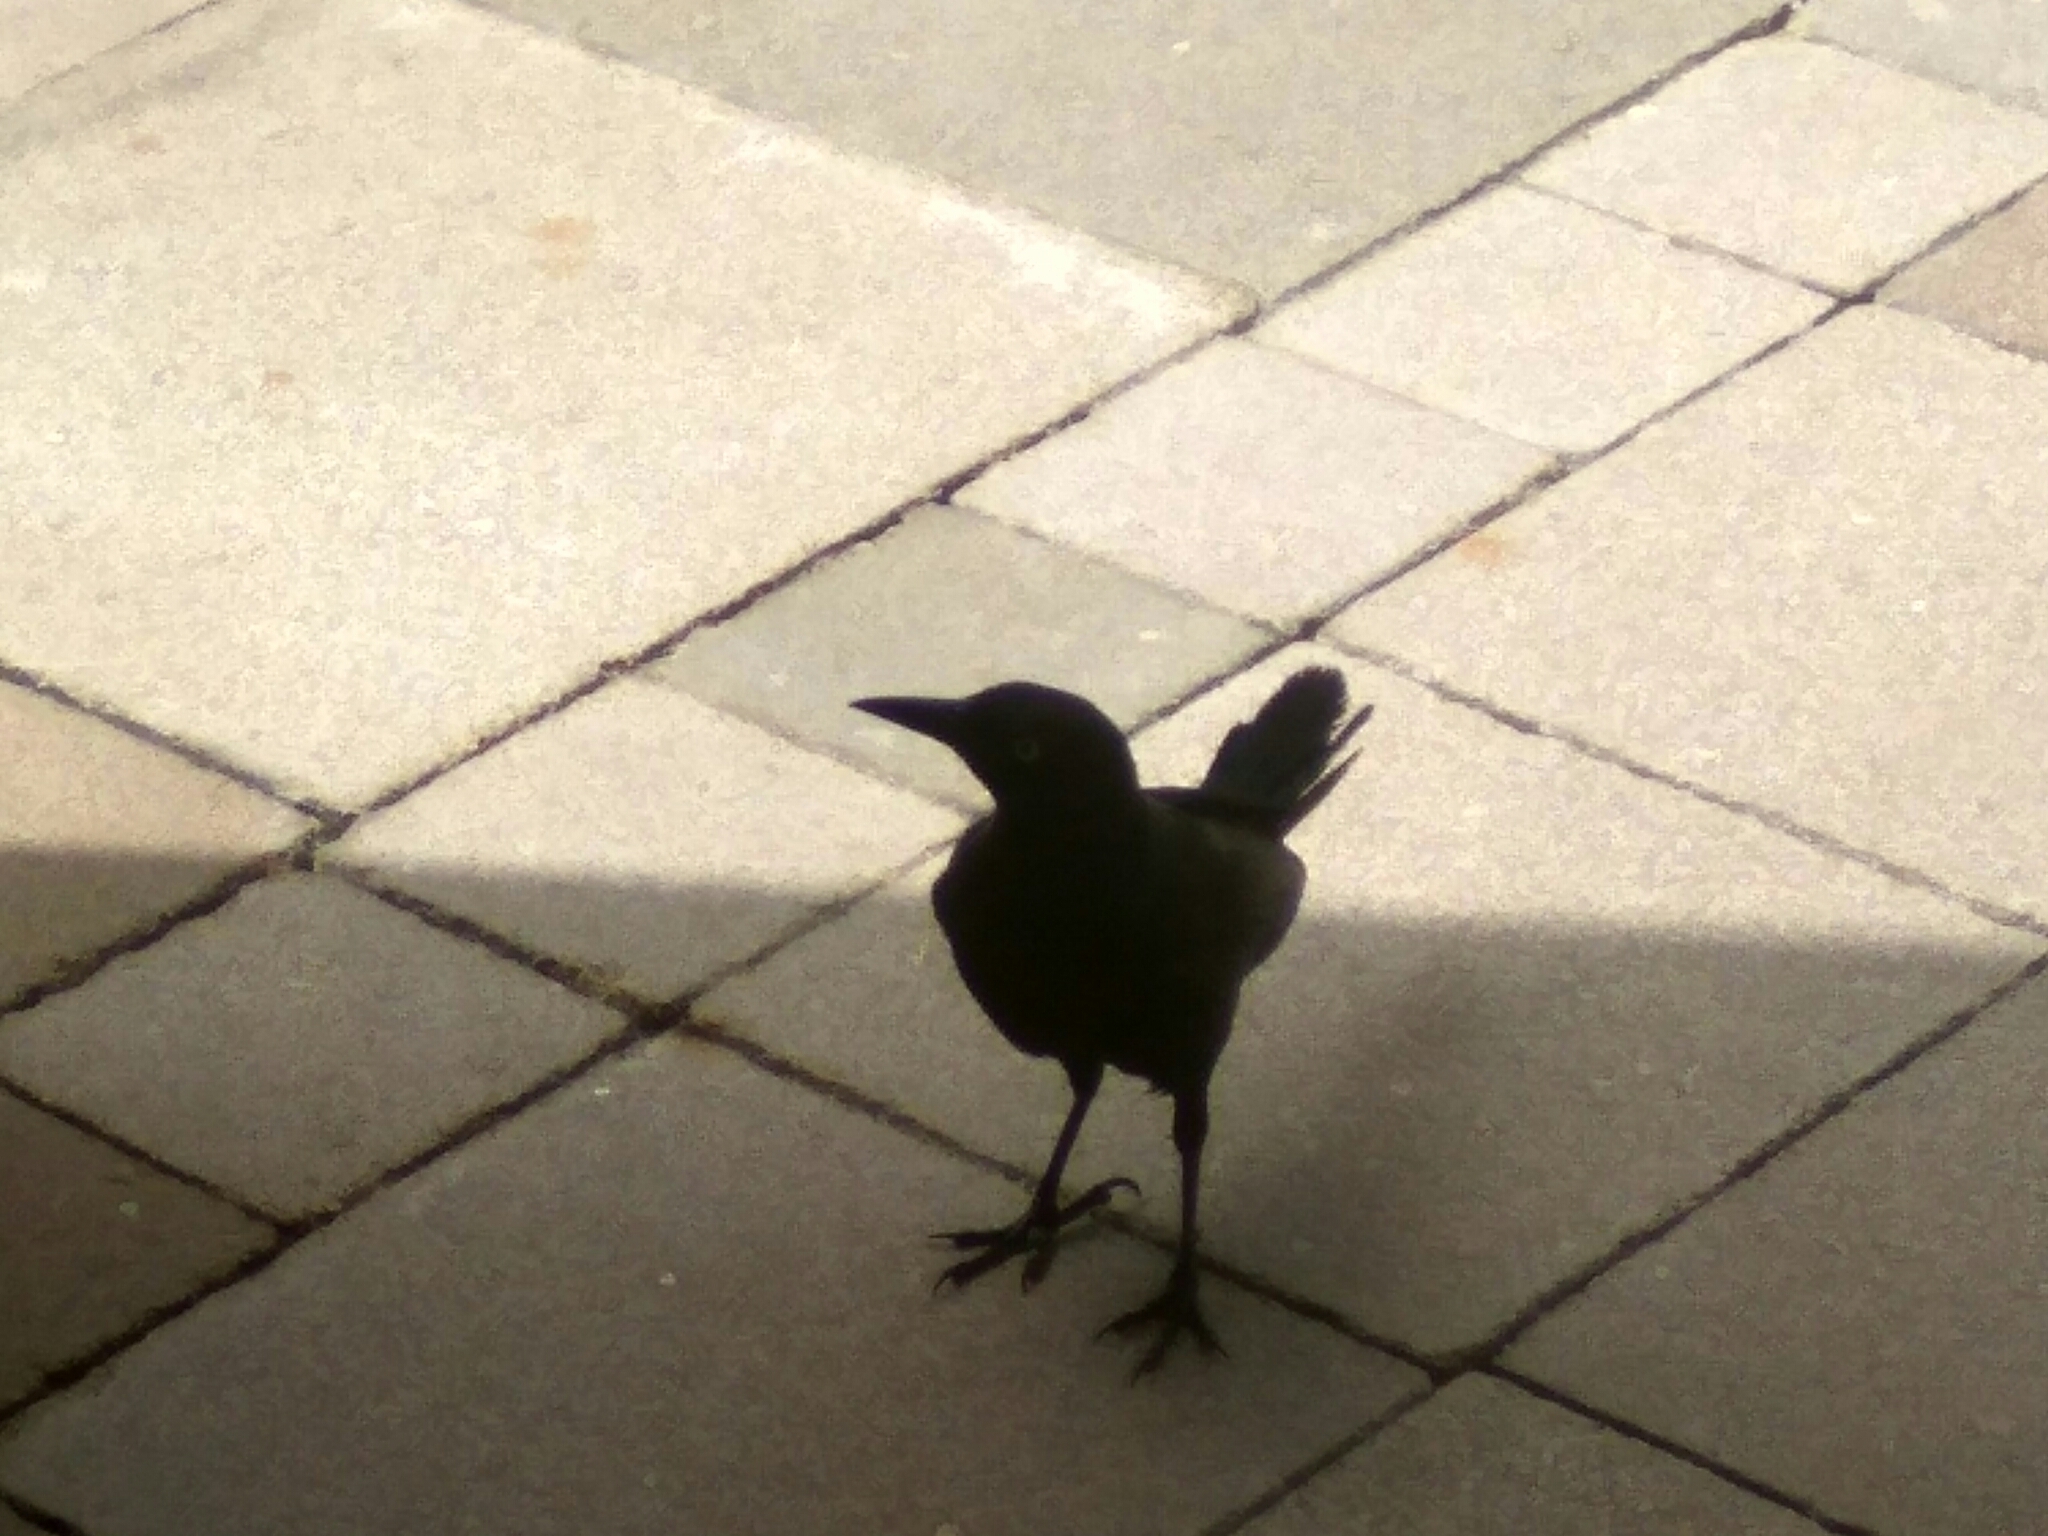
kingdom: Animalia
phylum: Chordata
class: Aves
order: Passeriformes
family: Icteridae
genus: Quiscalus
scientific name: Quiscalus niger
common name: Greater antillean grackle
